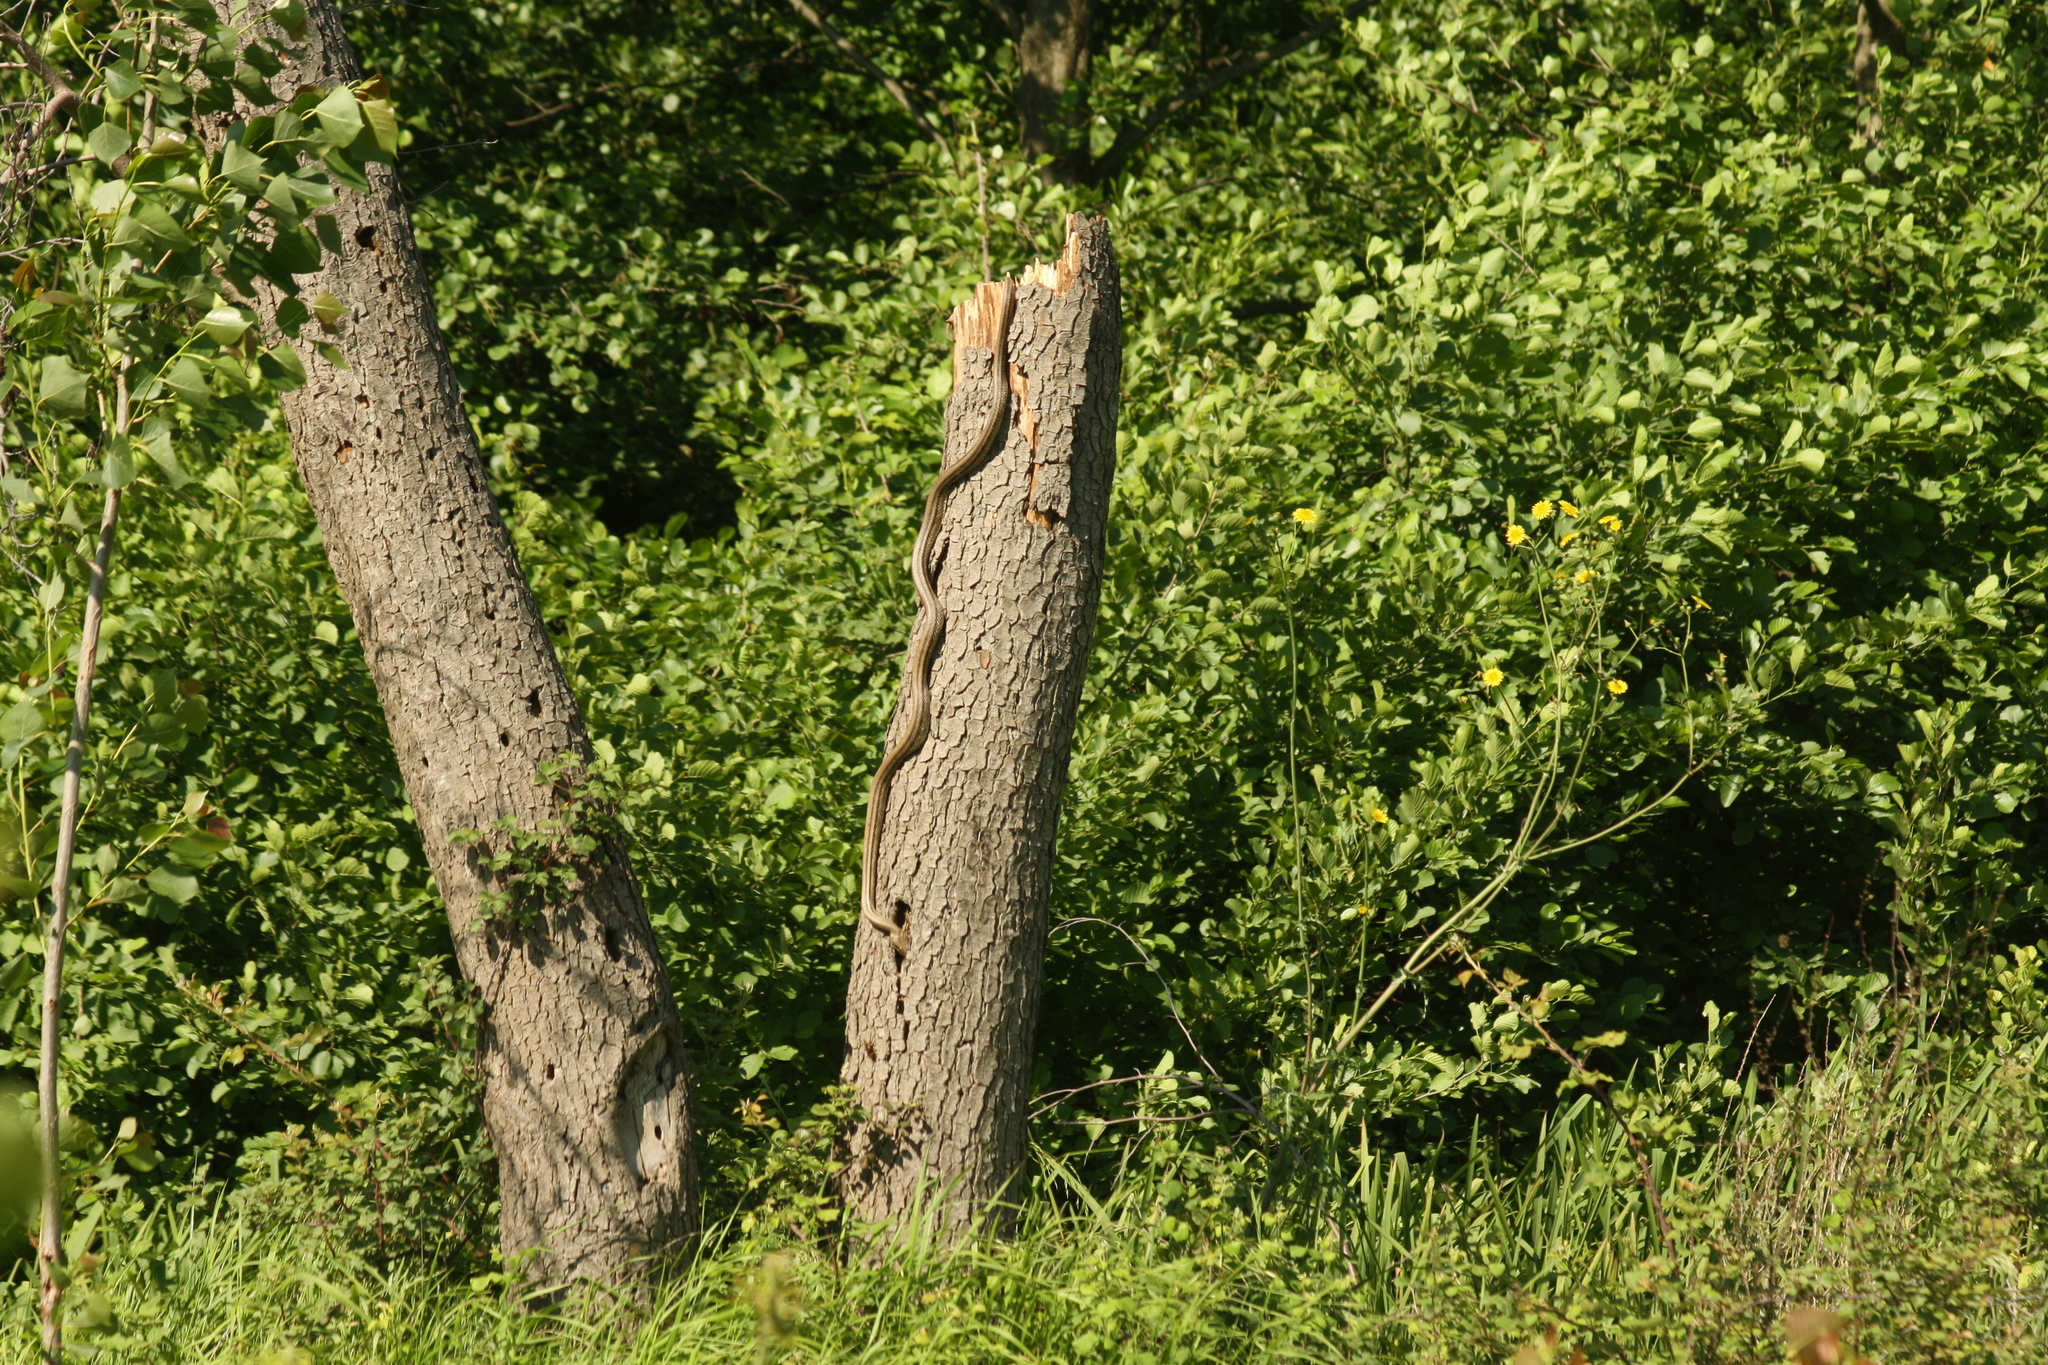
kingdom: Animalia
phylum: Chordata
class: Squamata
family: Colubridae
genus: Elaphe
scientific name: Elaphe quatuorlineata
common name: Four-lined snake
